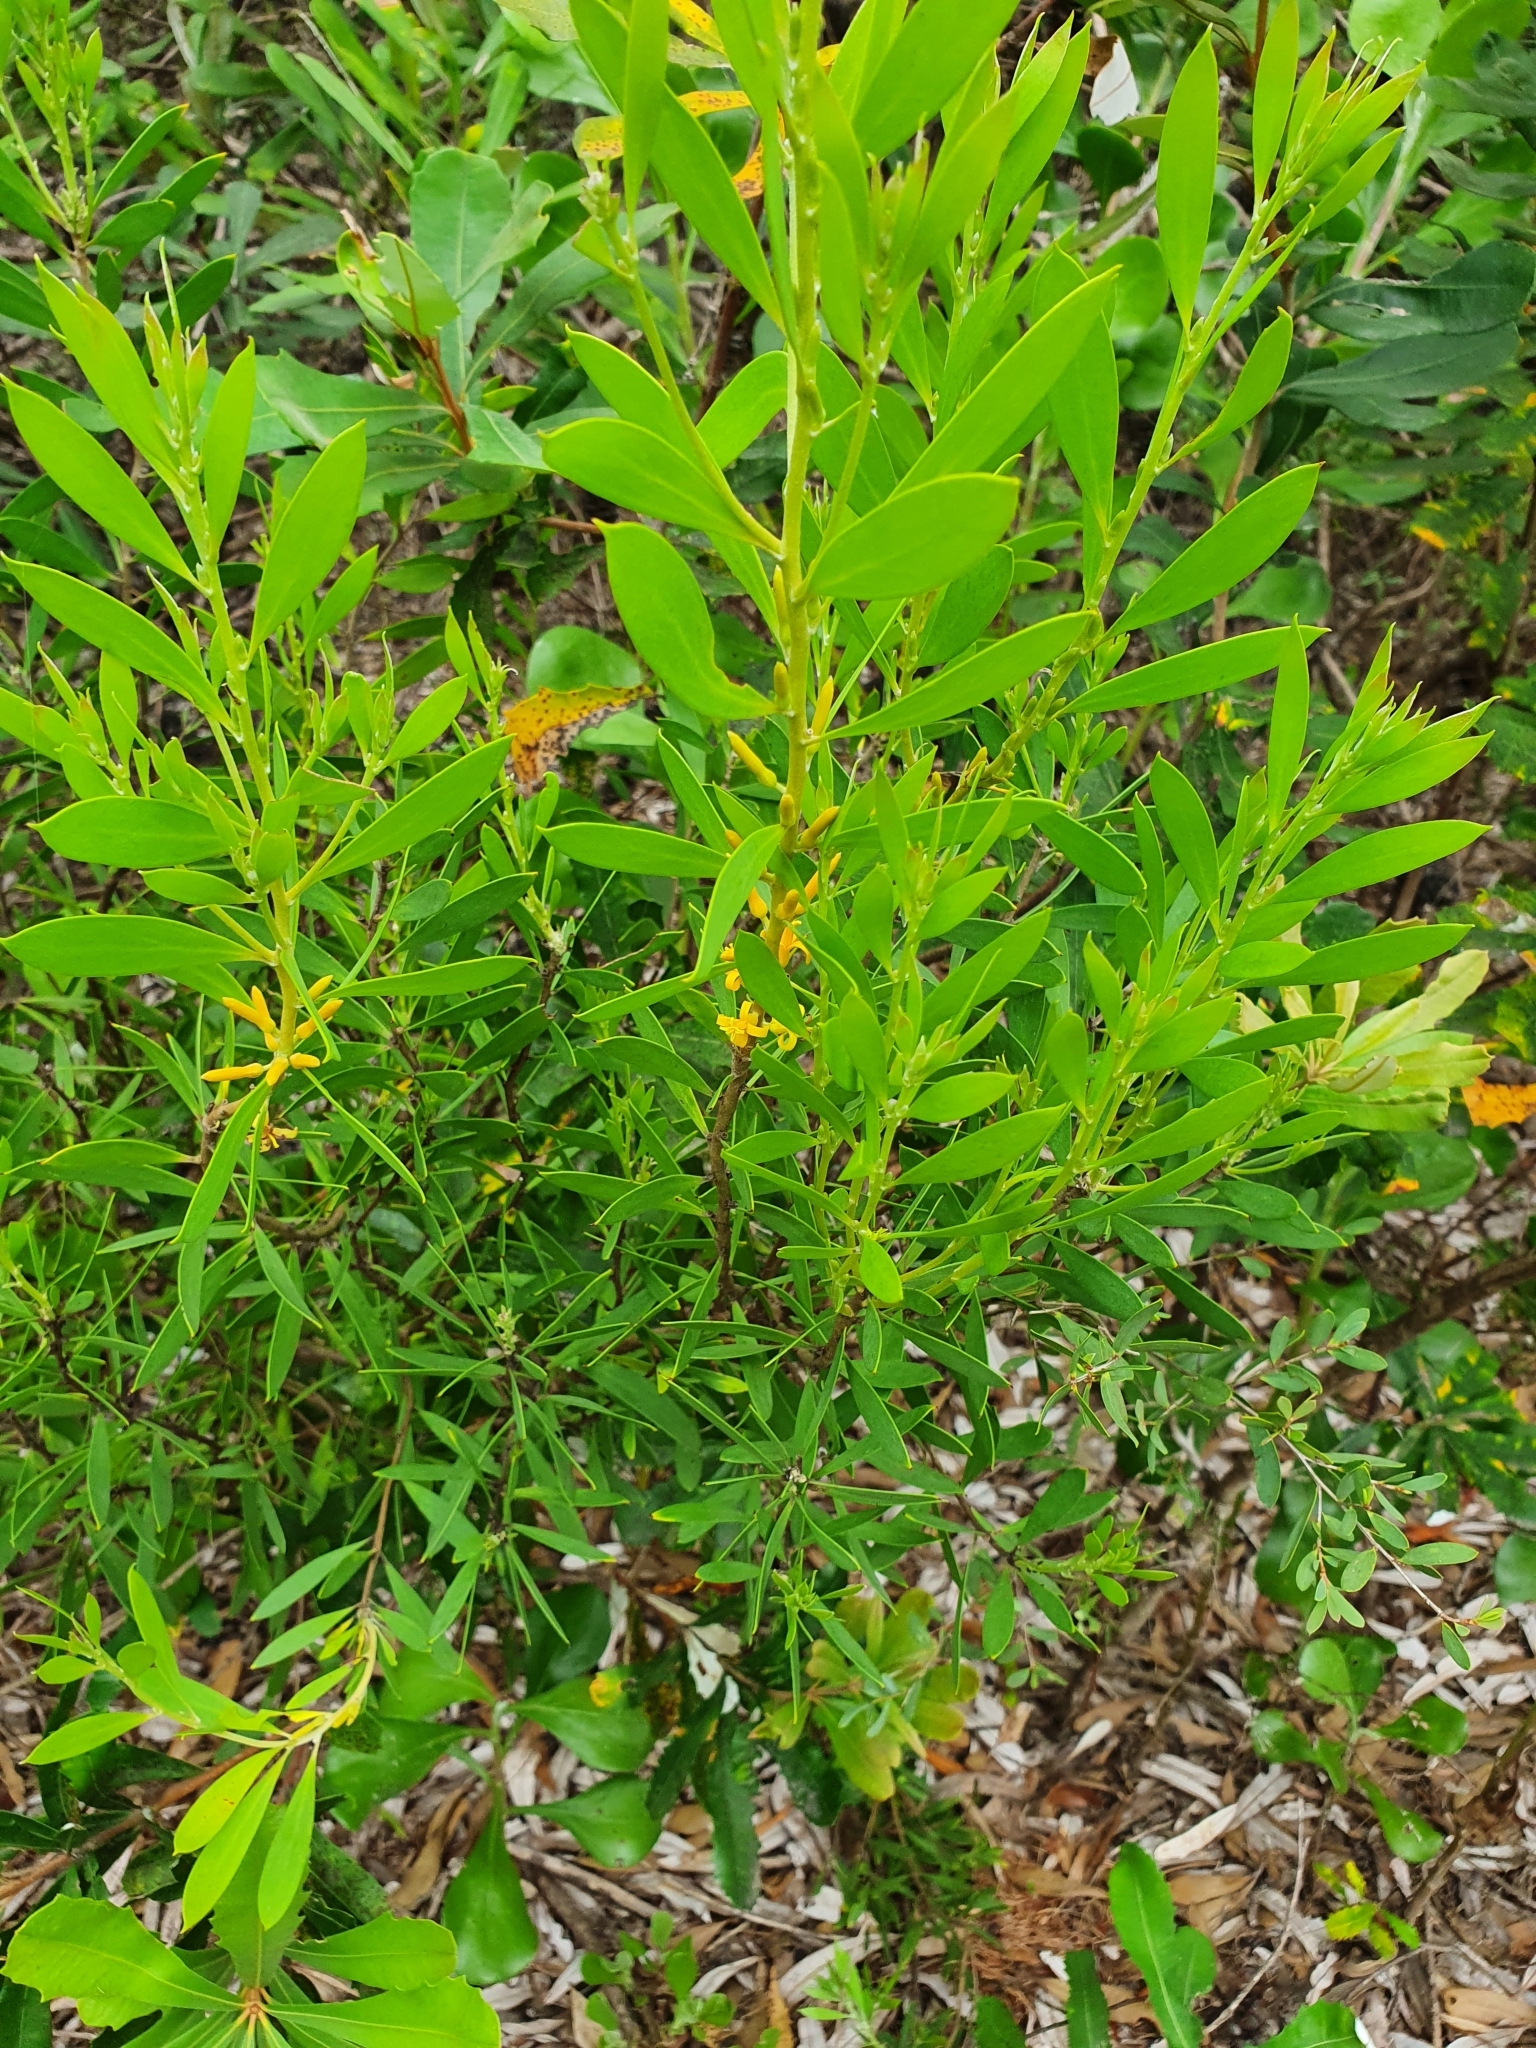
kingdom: Plantae
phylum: Tracheophyta
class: Magnoliopsida
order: Proteales
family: Proteaceae
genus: Persoonia
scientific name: Persoonia lanceolata
